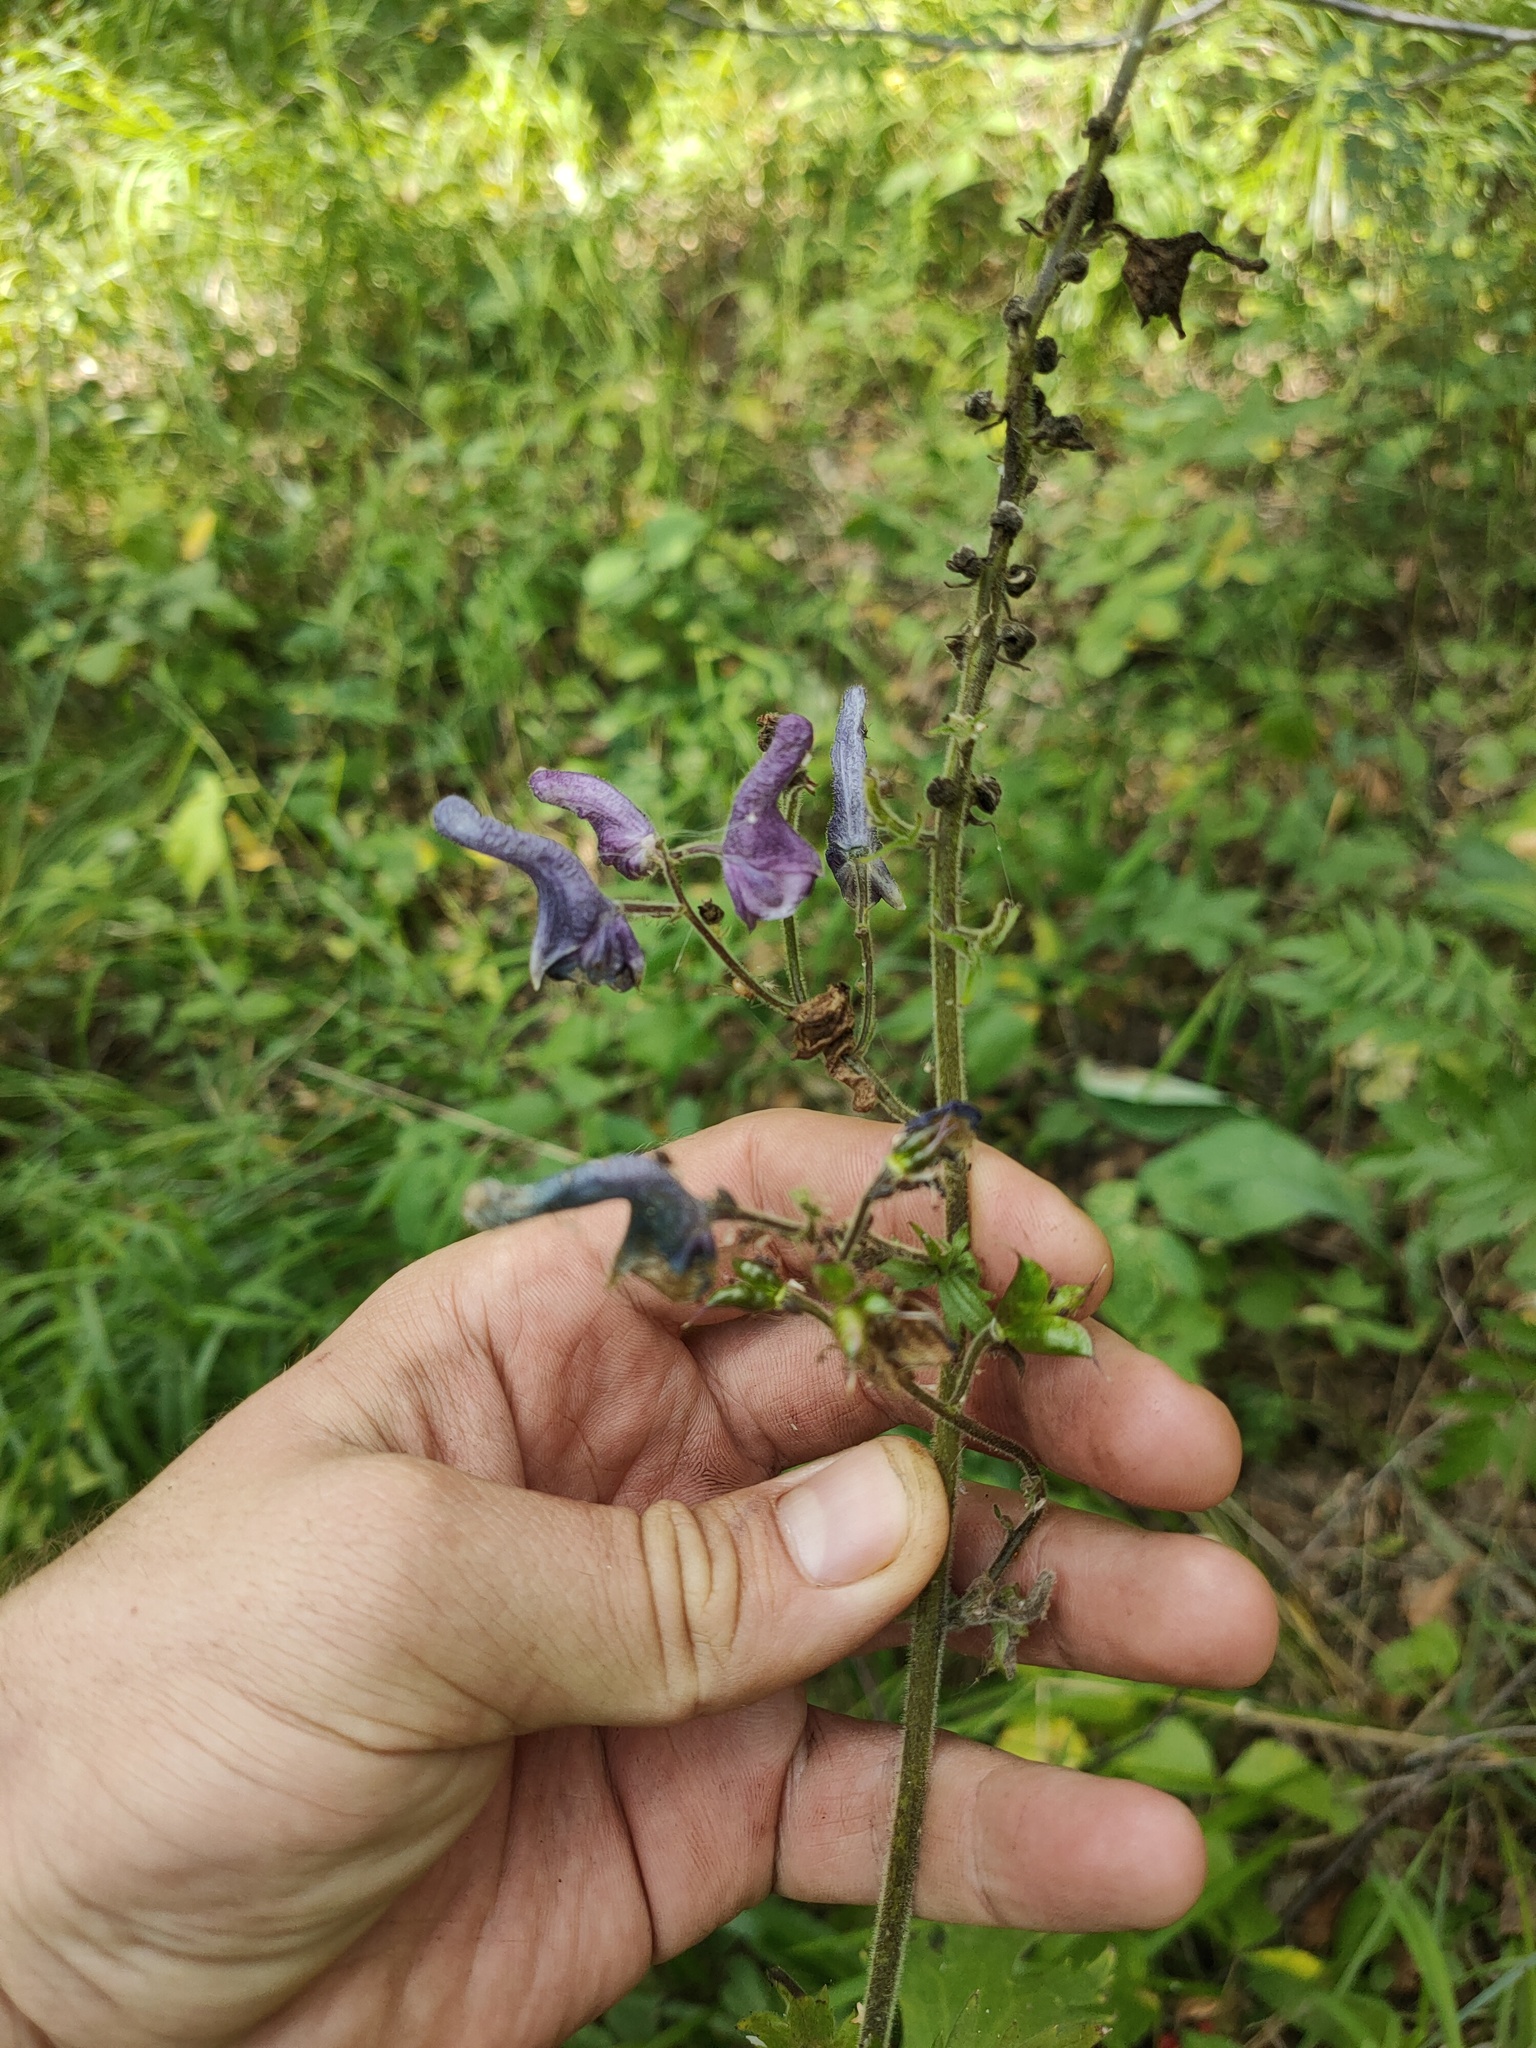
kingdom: Plantae
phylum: Tracheophyta
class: Magnoliopsida
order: Ranunculales
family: Ranunculaceae
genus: Aconitum
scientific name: Aconitum septentrionale
